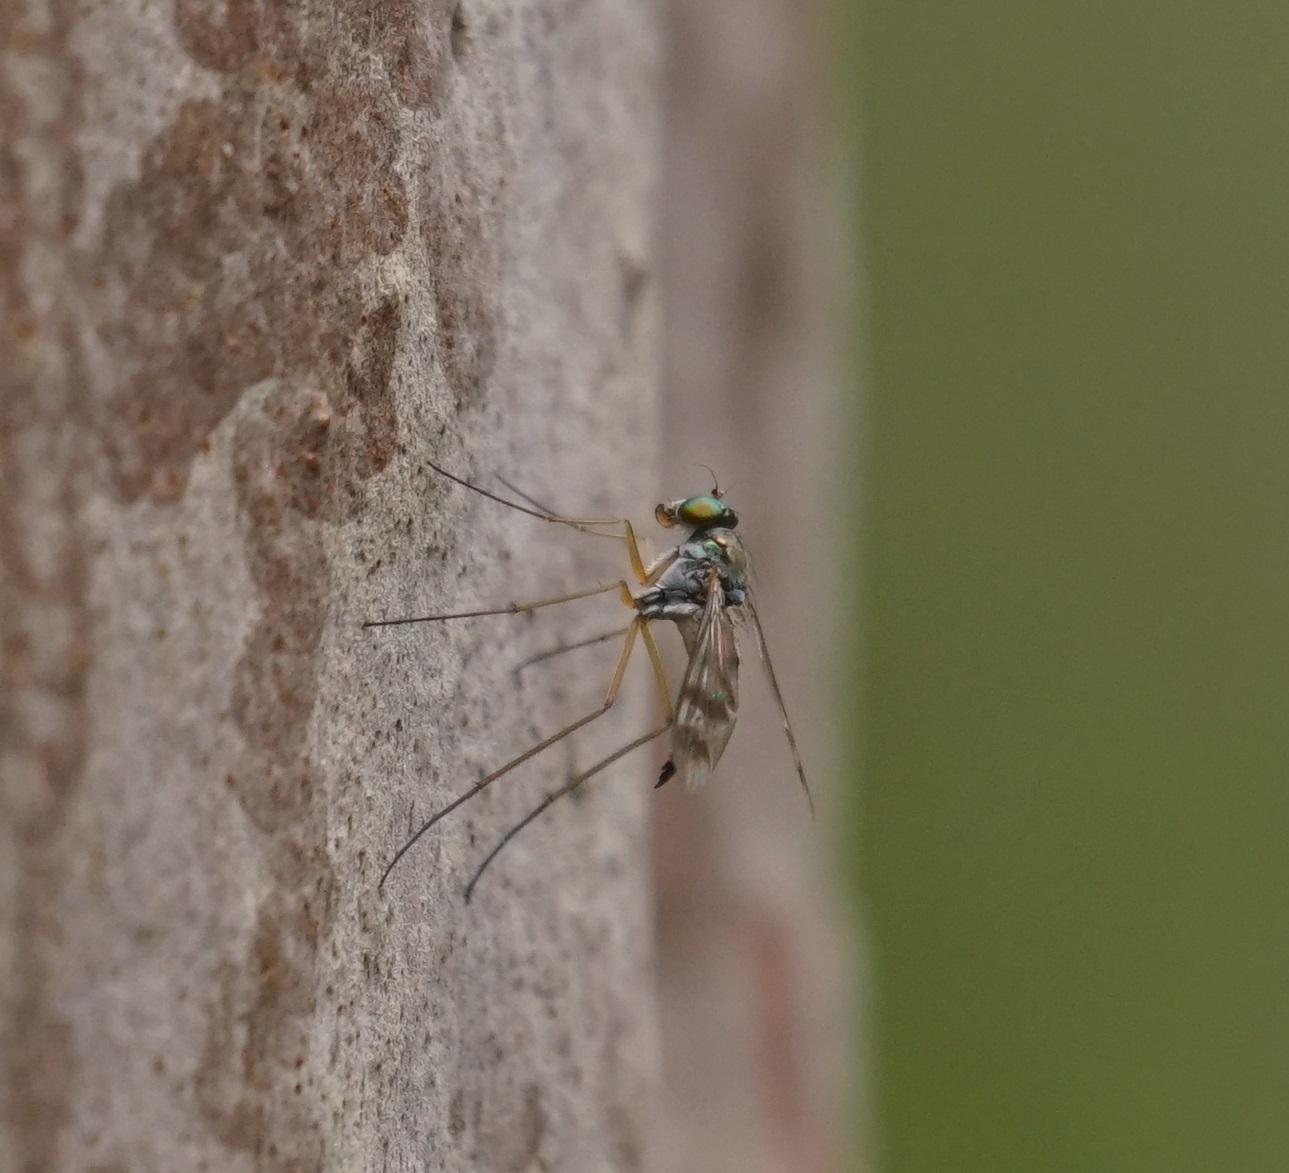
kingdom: Animalia
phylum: Arthropoda
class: Insecta
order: Diptera
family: Dolichopodidae
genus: Heteropsilopus
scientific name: Heteropsilopus squamifer
